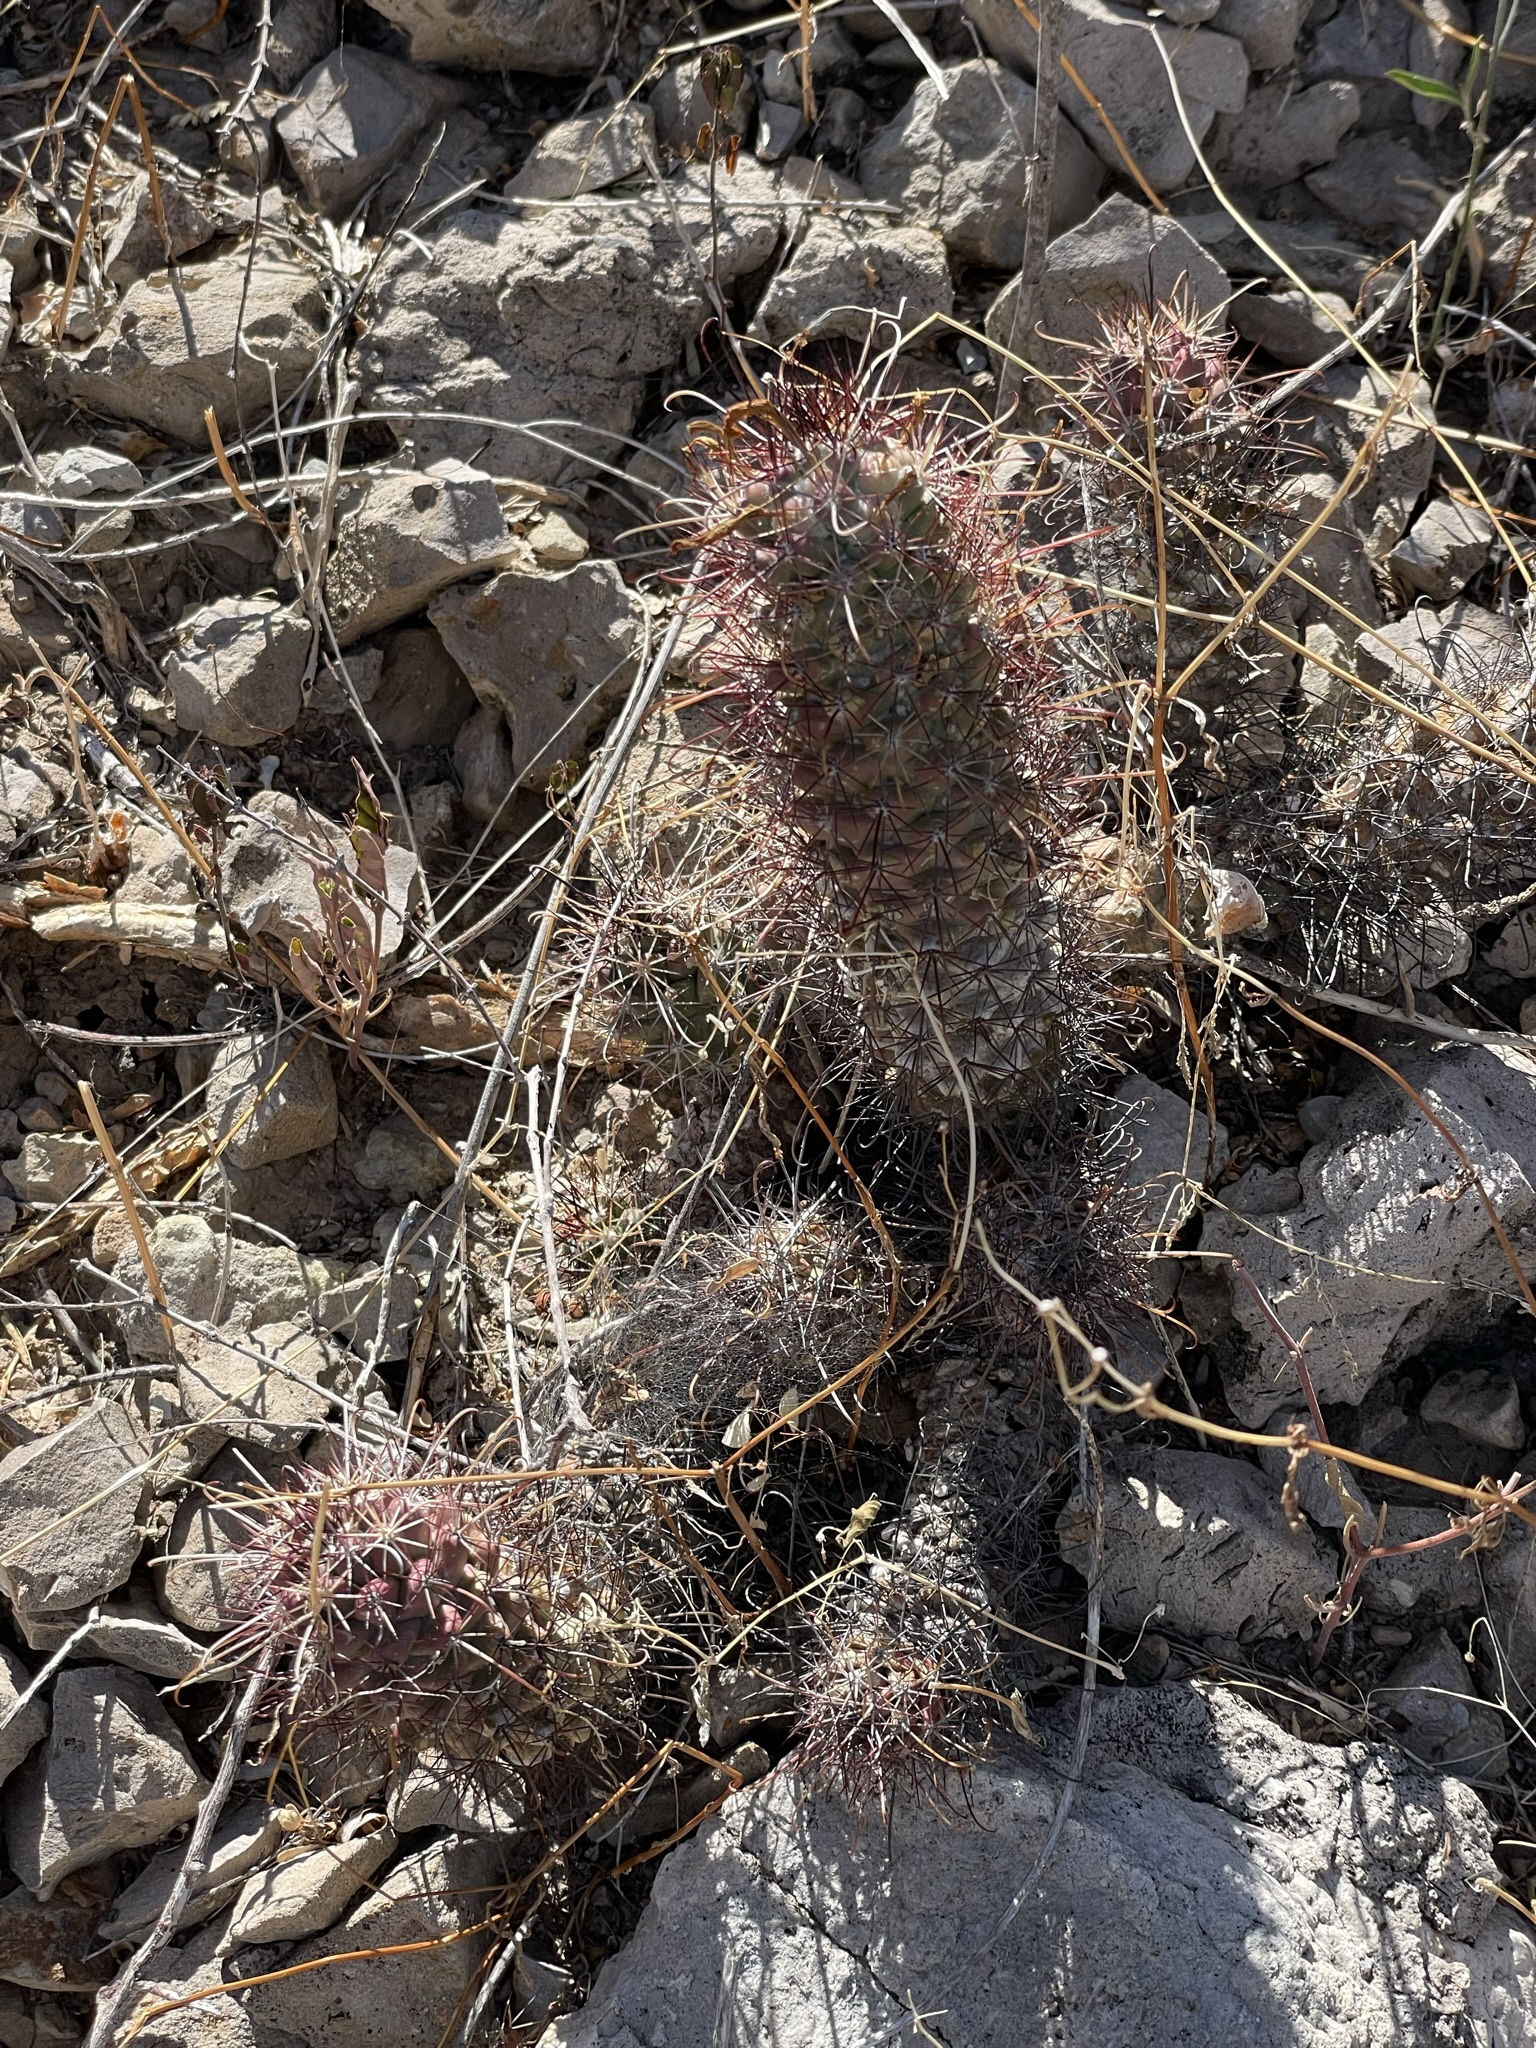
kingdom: Plantae
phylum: Tracheophyta
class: Magnoliopsida
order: Caryophyllales
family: Cactaceae
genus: Cochemiea
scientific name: Cochemiea poselgeri
